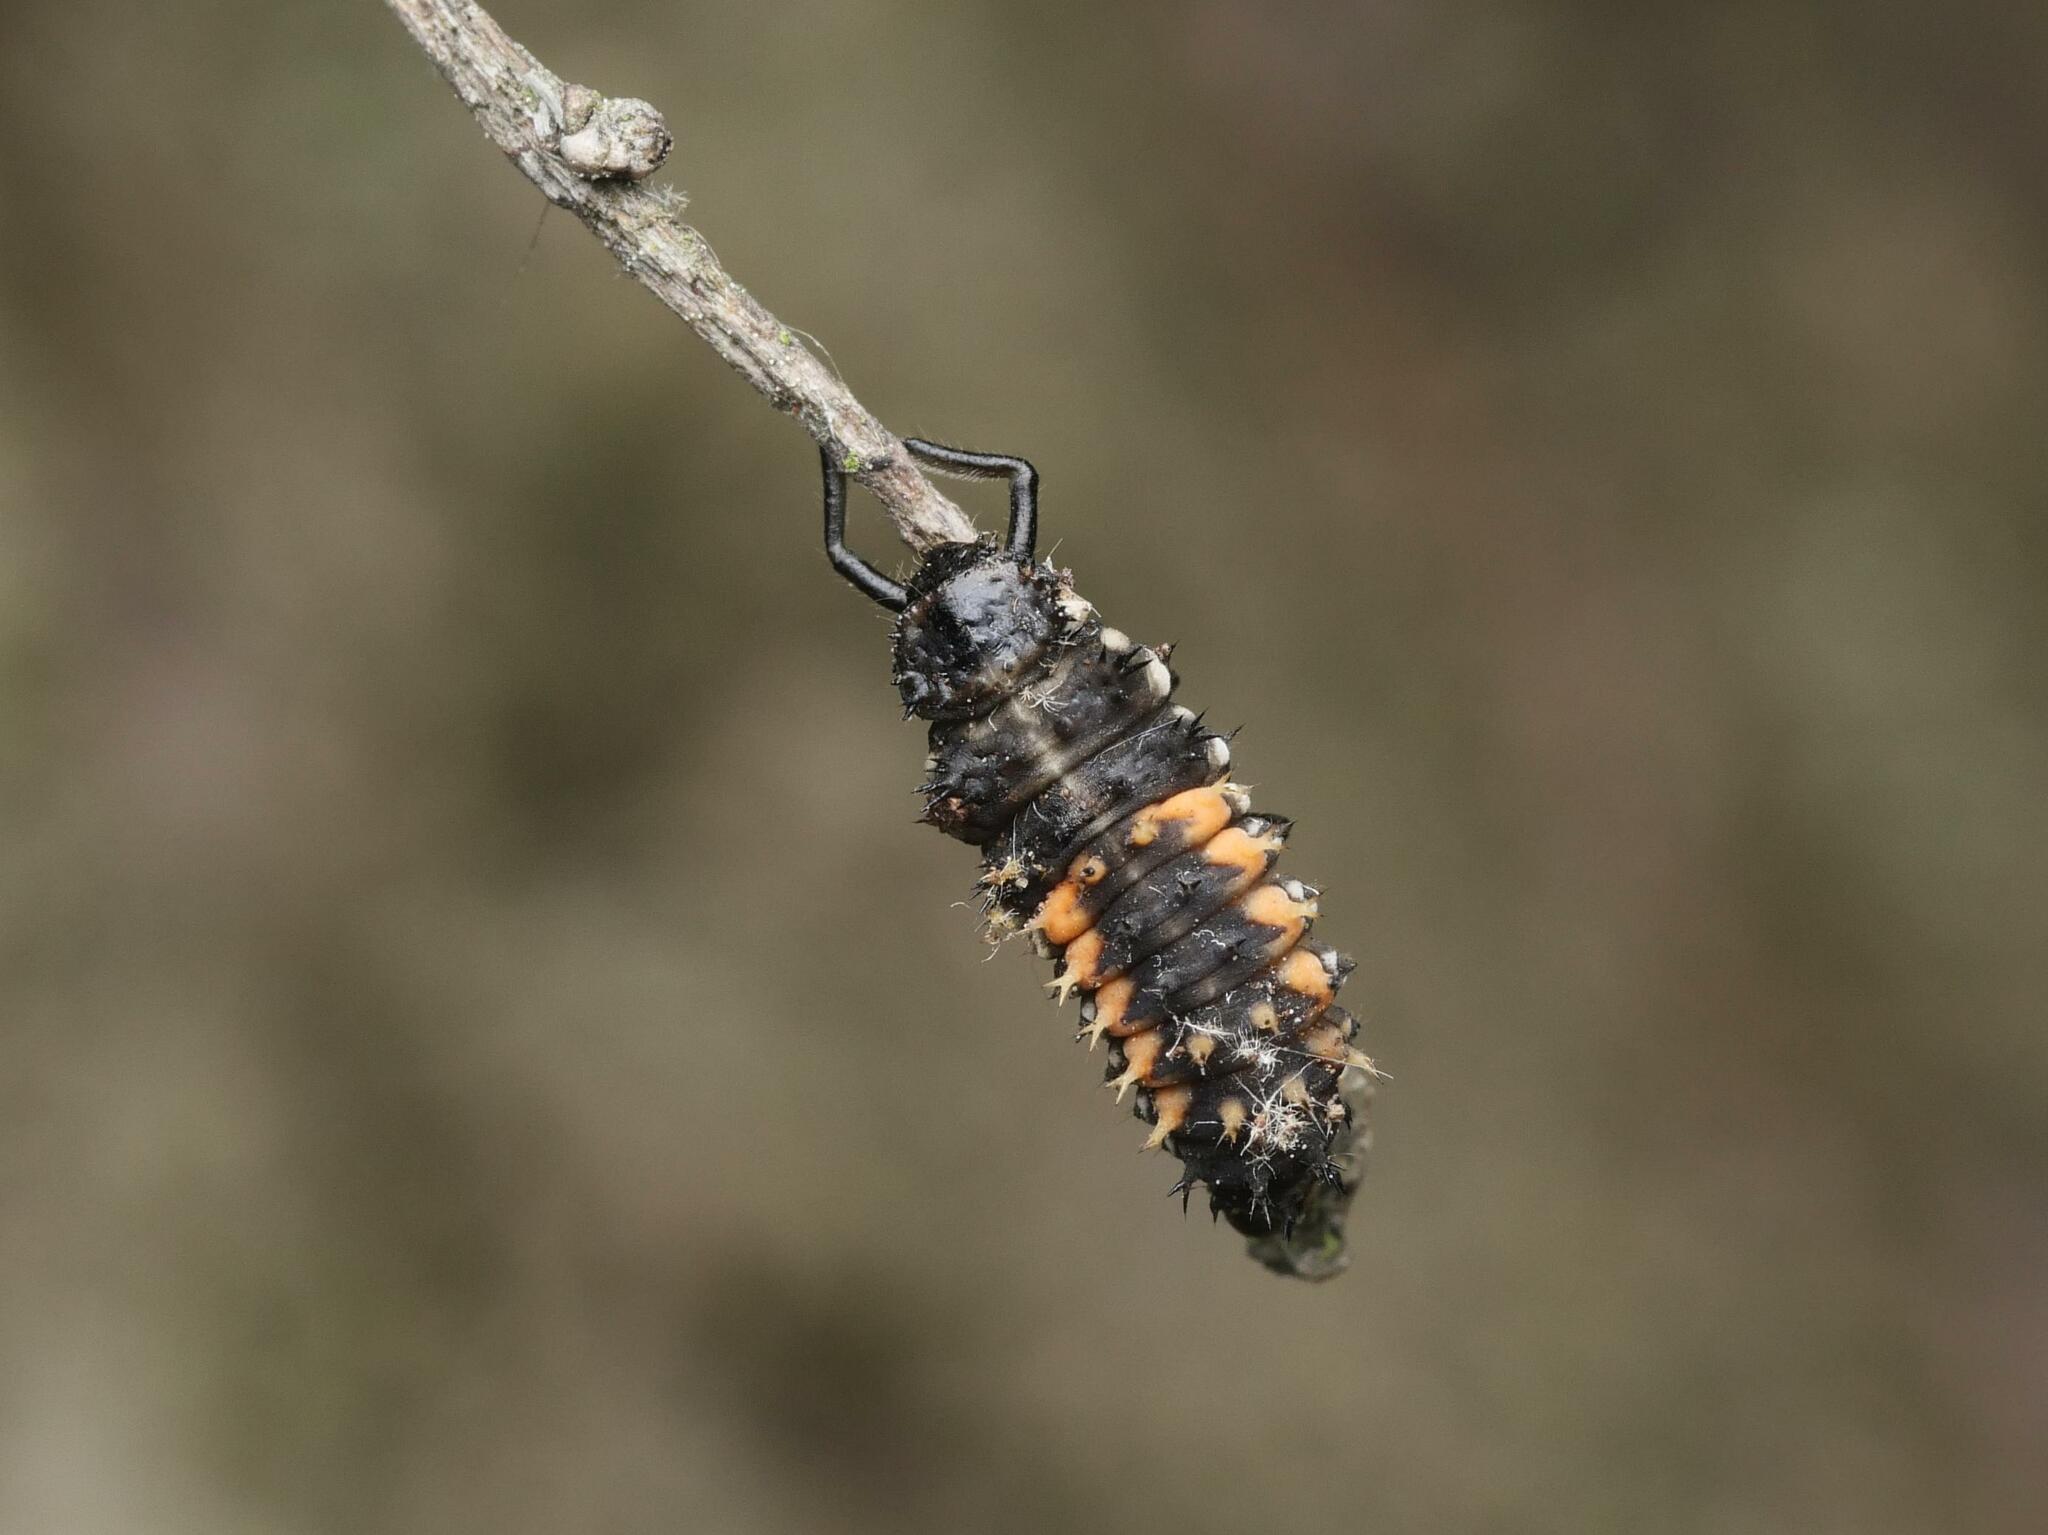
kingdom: Animalia
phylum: Arthropoda
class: Insecta
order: Coleoptera
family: Coccinellidae
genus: Harmonia
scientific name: Harmonia axyridis
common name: Harlequin ladybird
